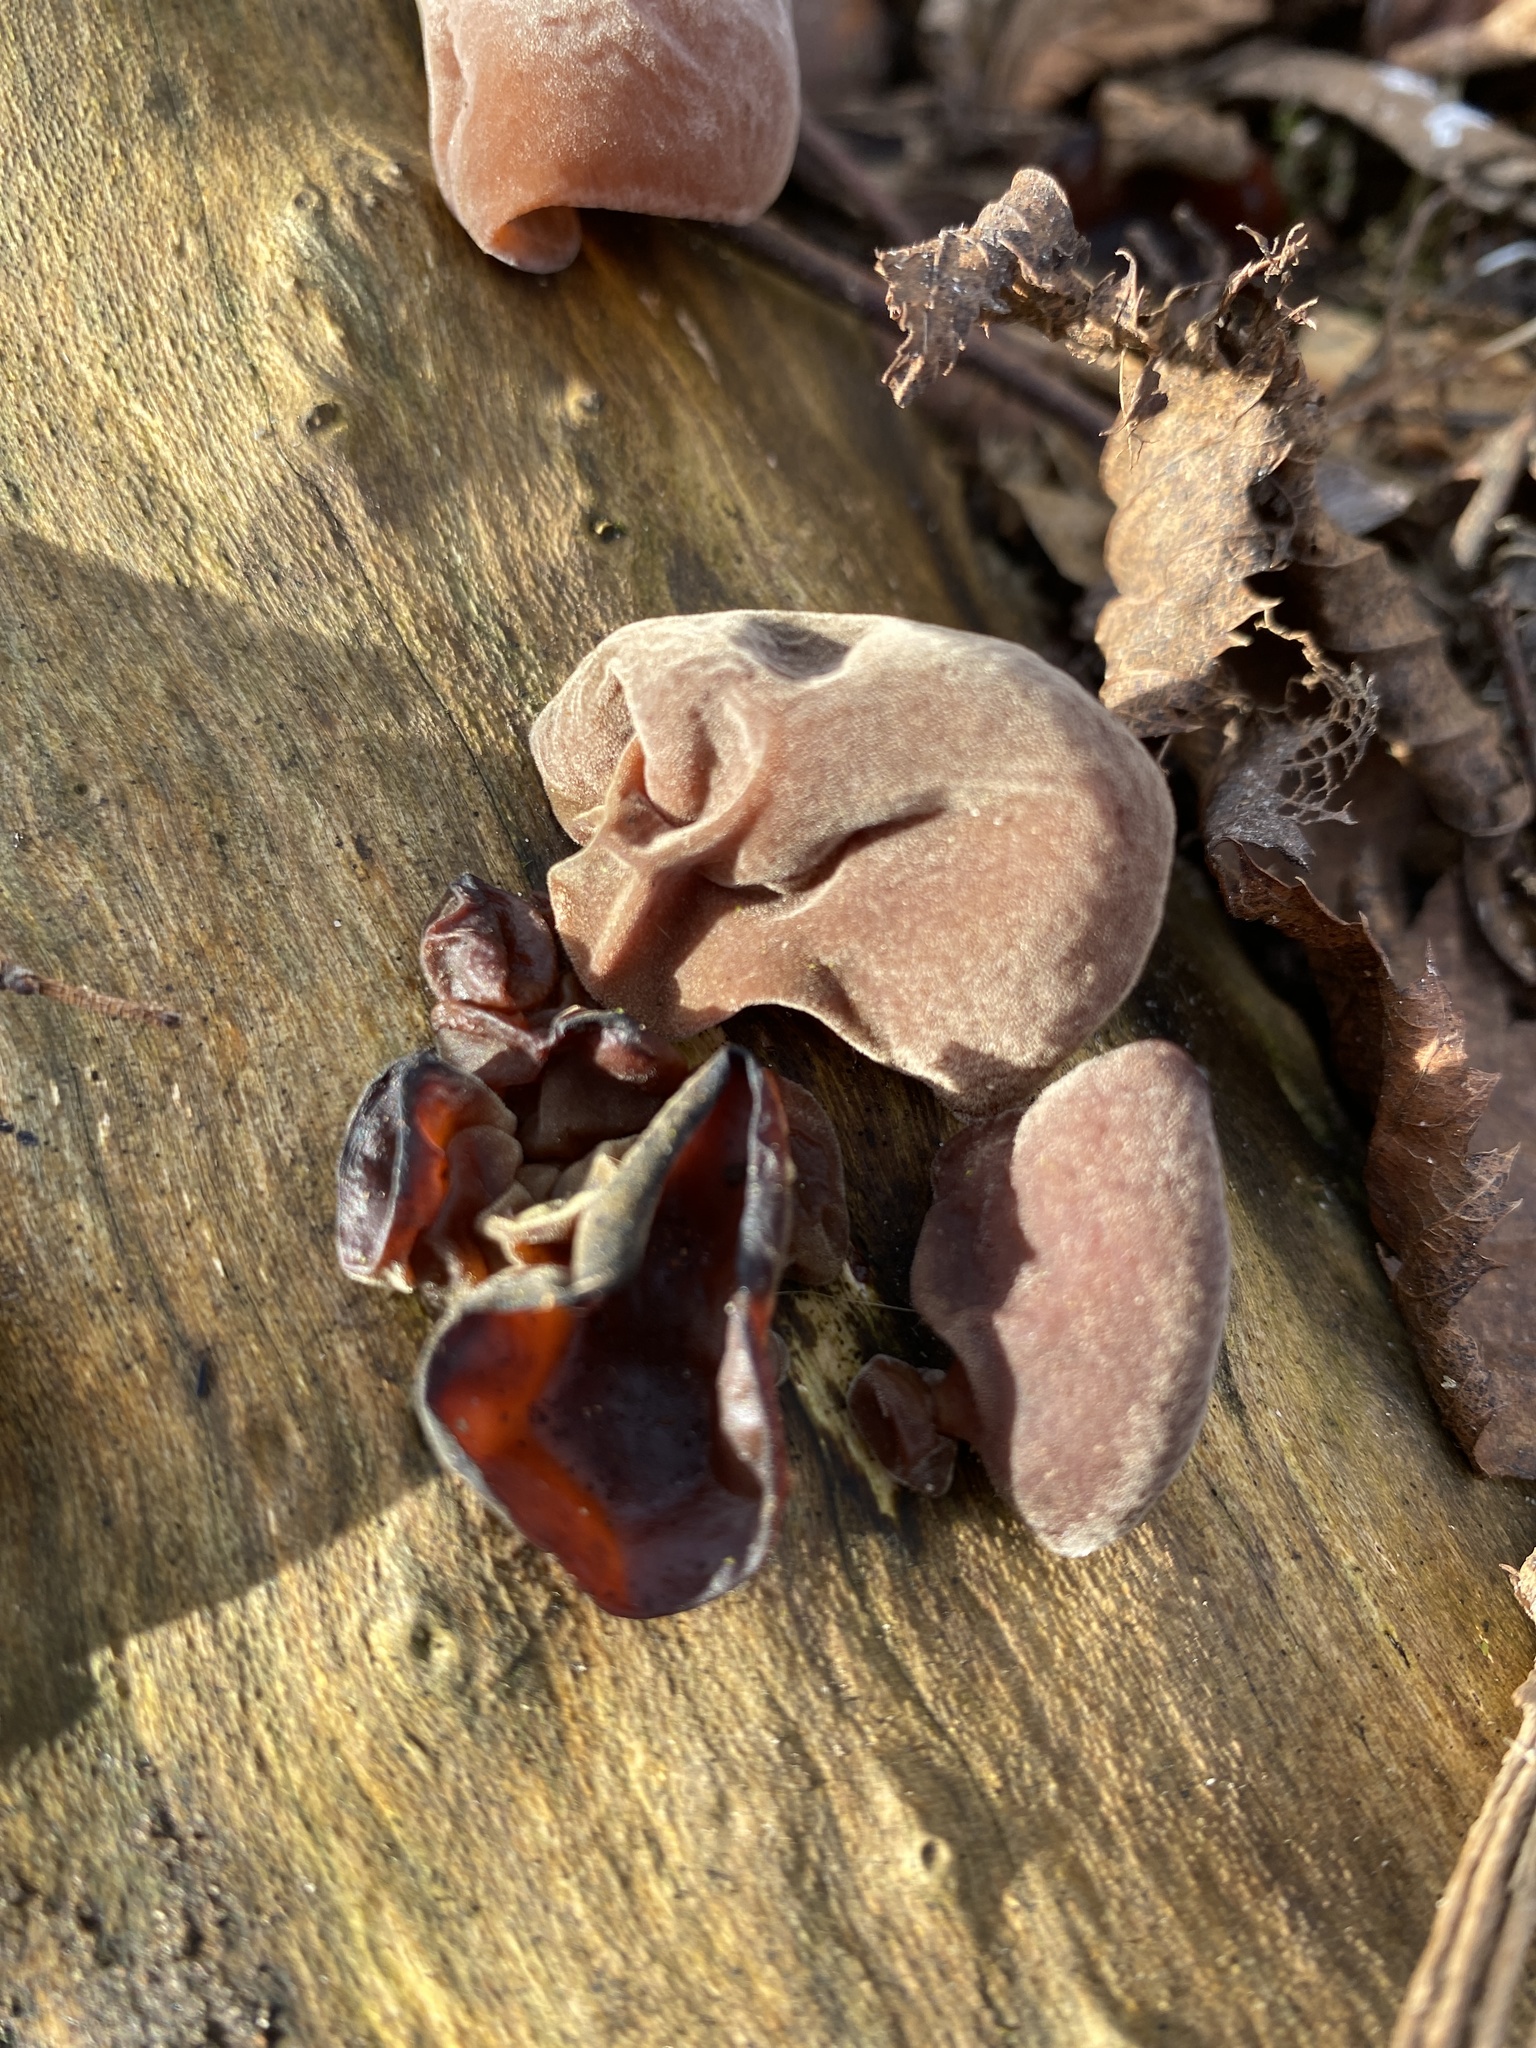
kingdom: Fungi
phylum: Basidiomycota
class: Agaricomycetes
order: Auriculariales
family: Auriculariaceae
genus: Auricularia
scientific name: Auricularia auricula-judae
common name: Jelly ear
